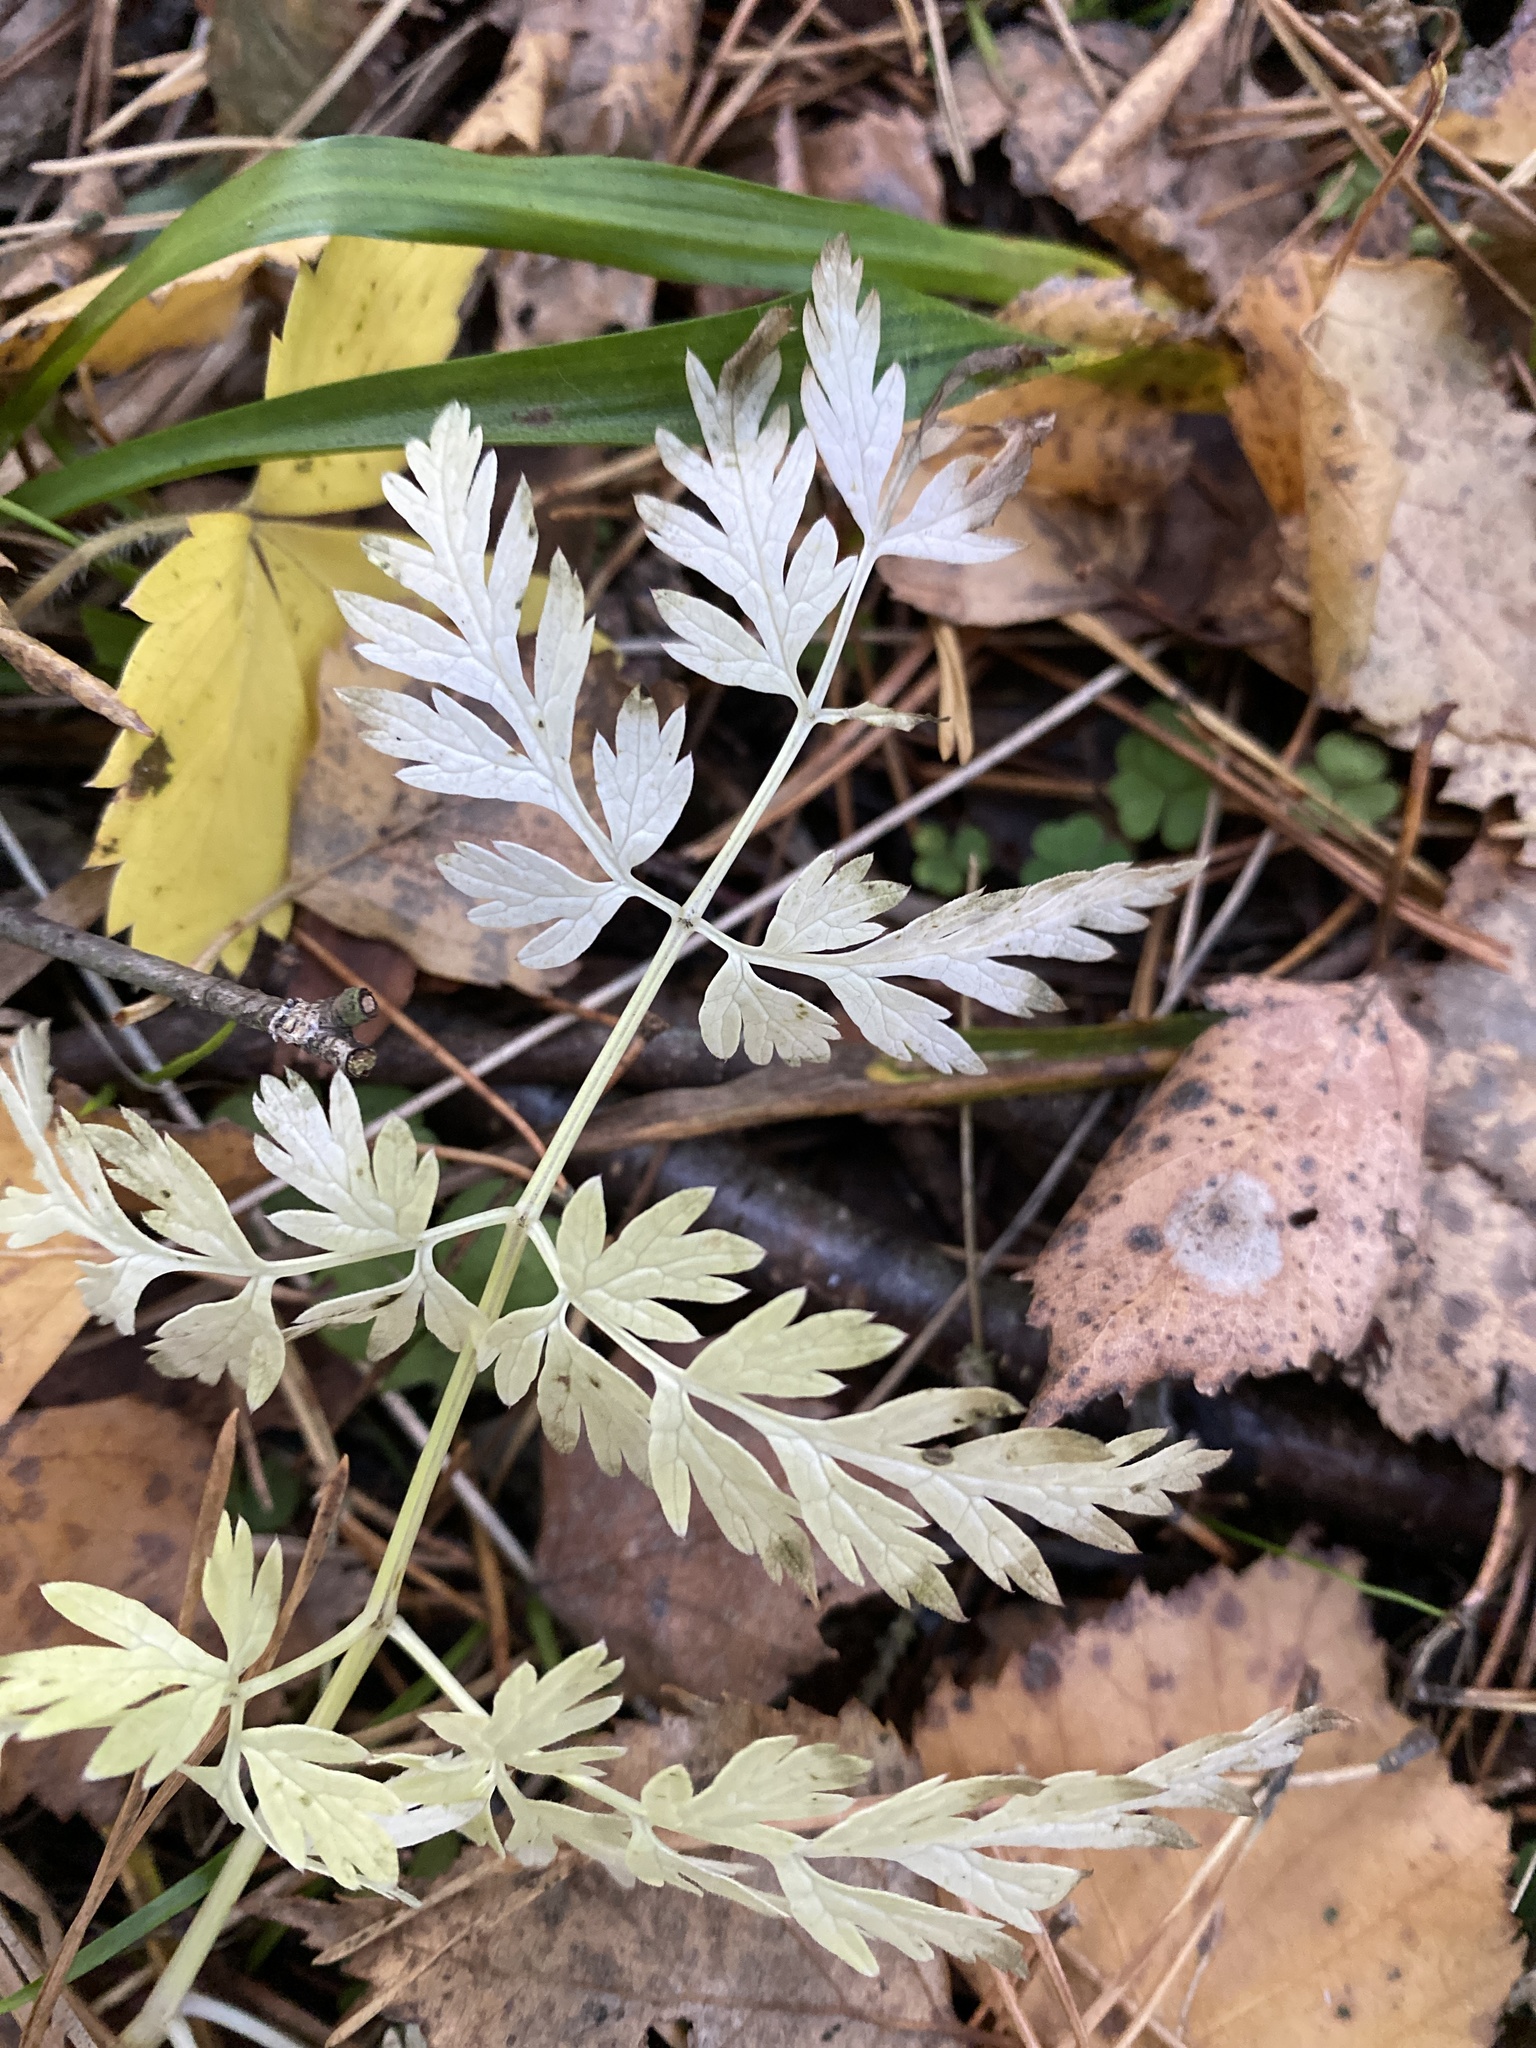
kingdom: Plantae
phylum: Tracheophyta
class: Magnoliopsida
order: Apiales
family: Apiaceae
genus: Anthriscus
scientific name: Anthriscus sylvestris
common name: Cow parsley
